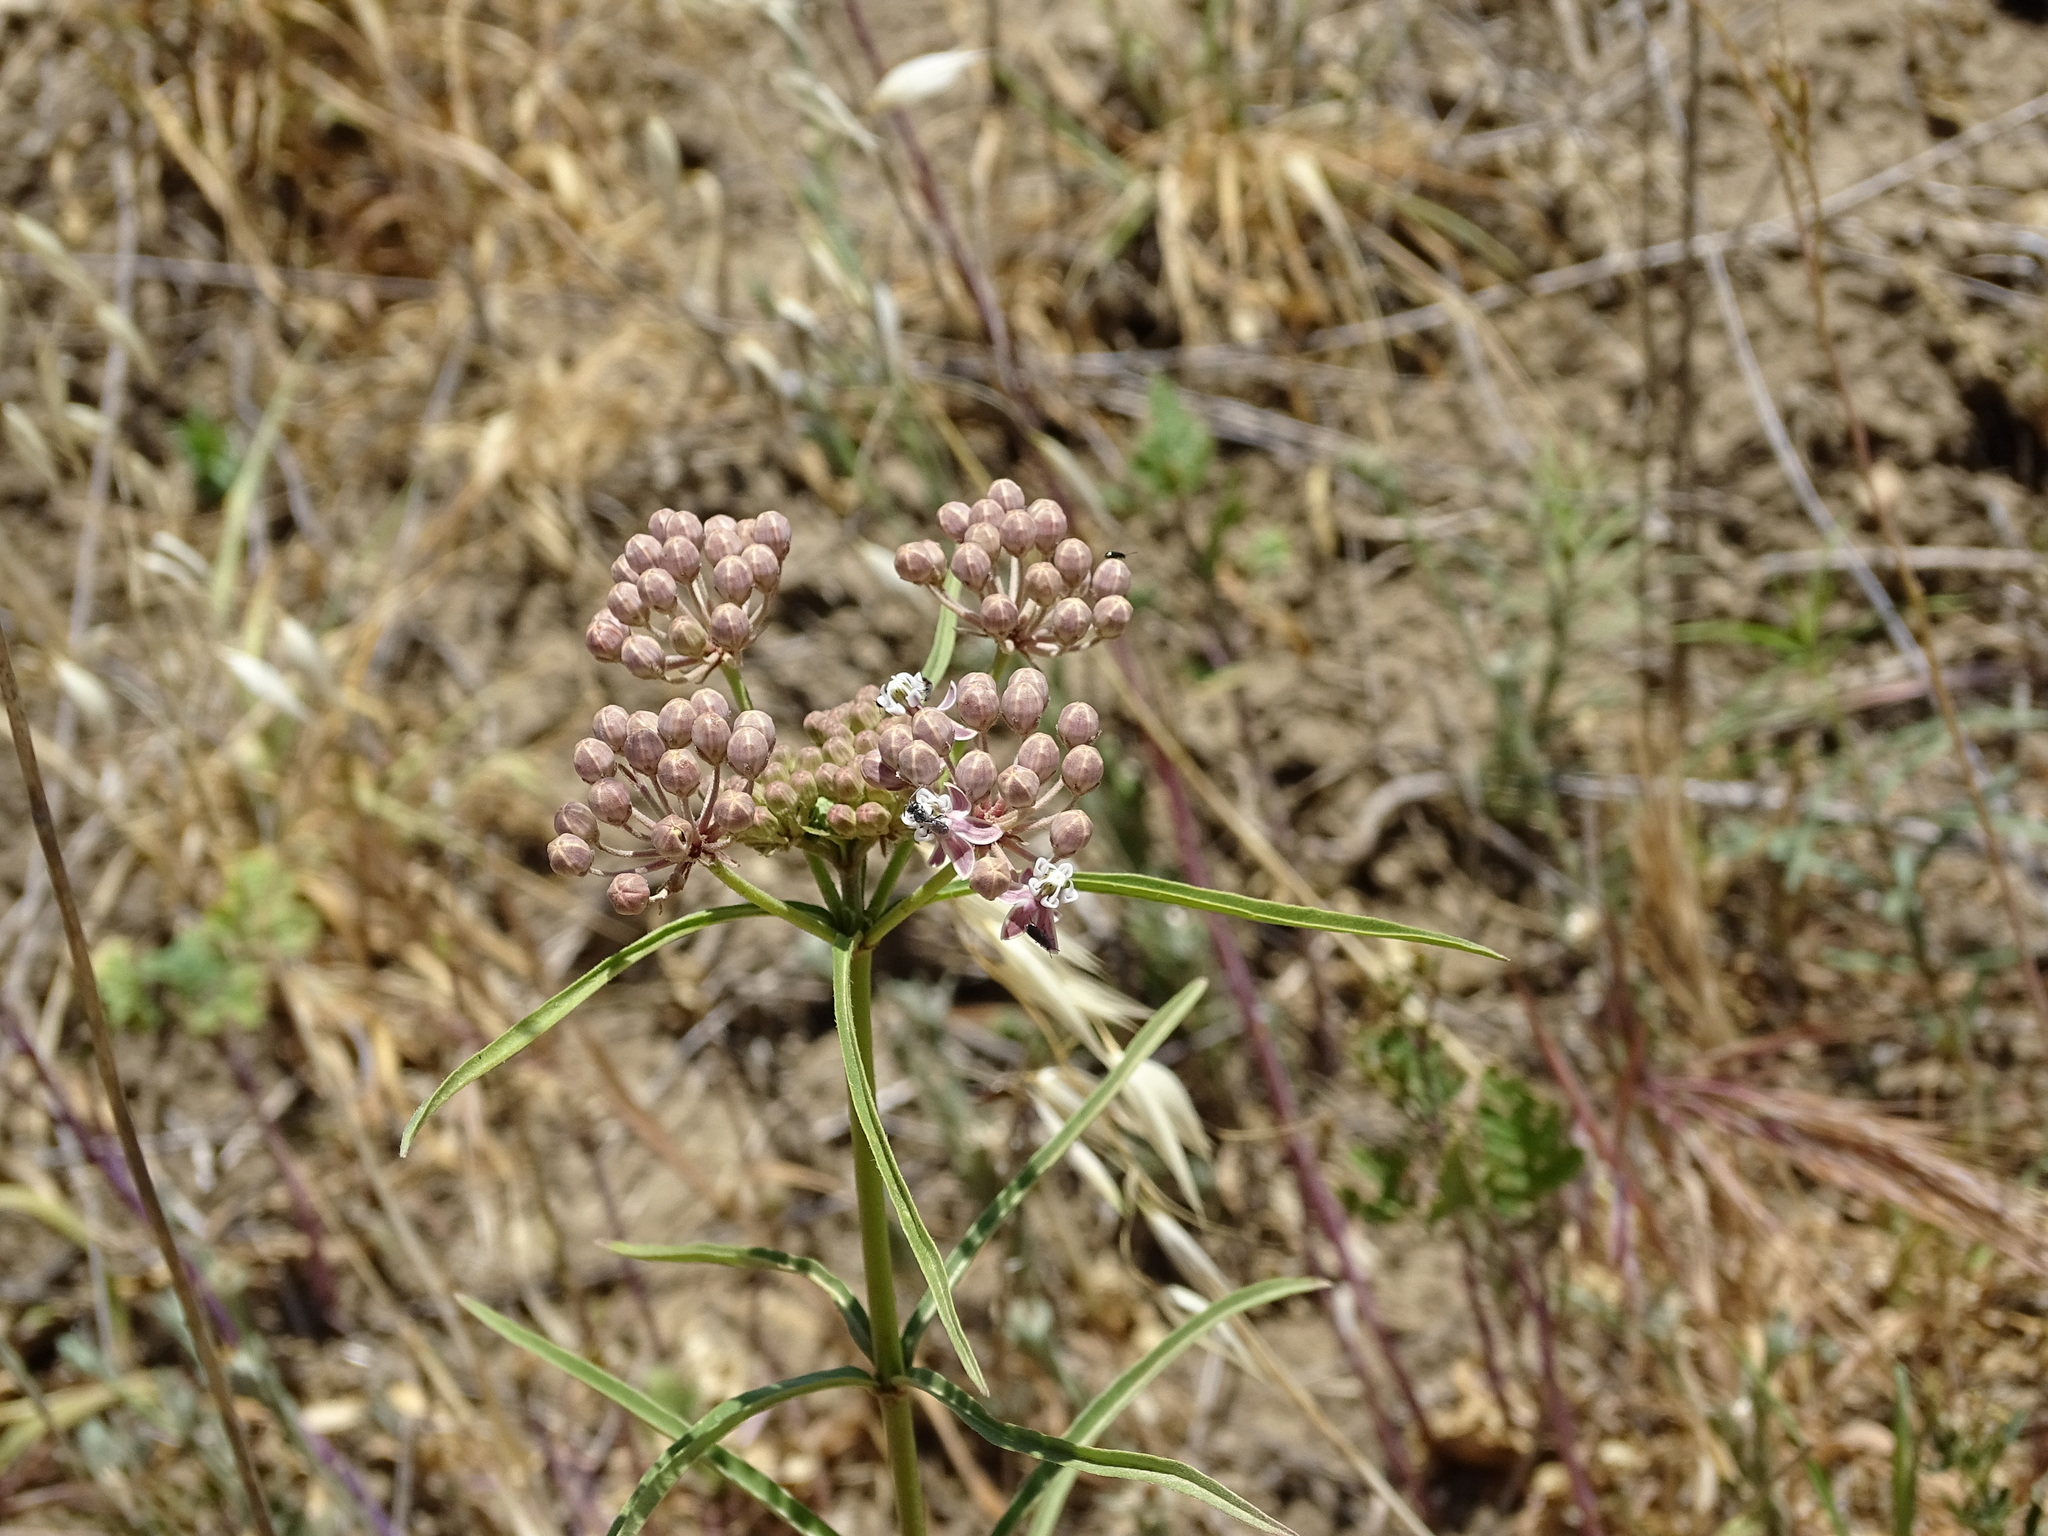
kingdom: Plantae
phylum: Tracheophyta
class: Magnoliopsida
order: Gentianales
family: Apocynaceae
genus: Asclepias
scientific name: Asclepias fascicularis
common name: Mexican milkweed
